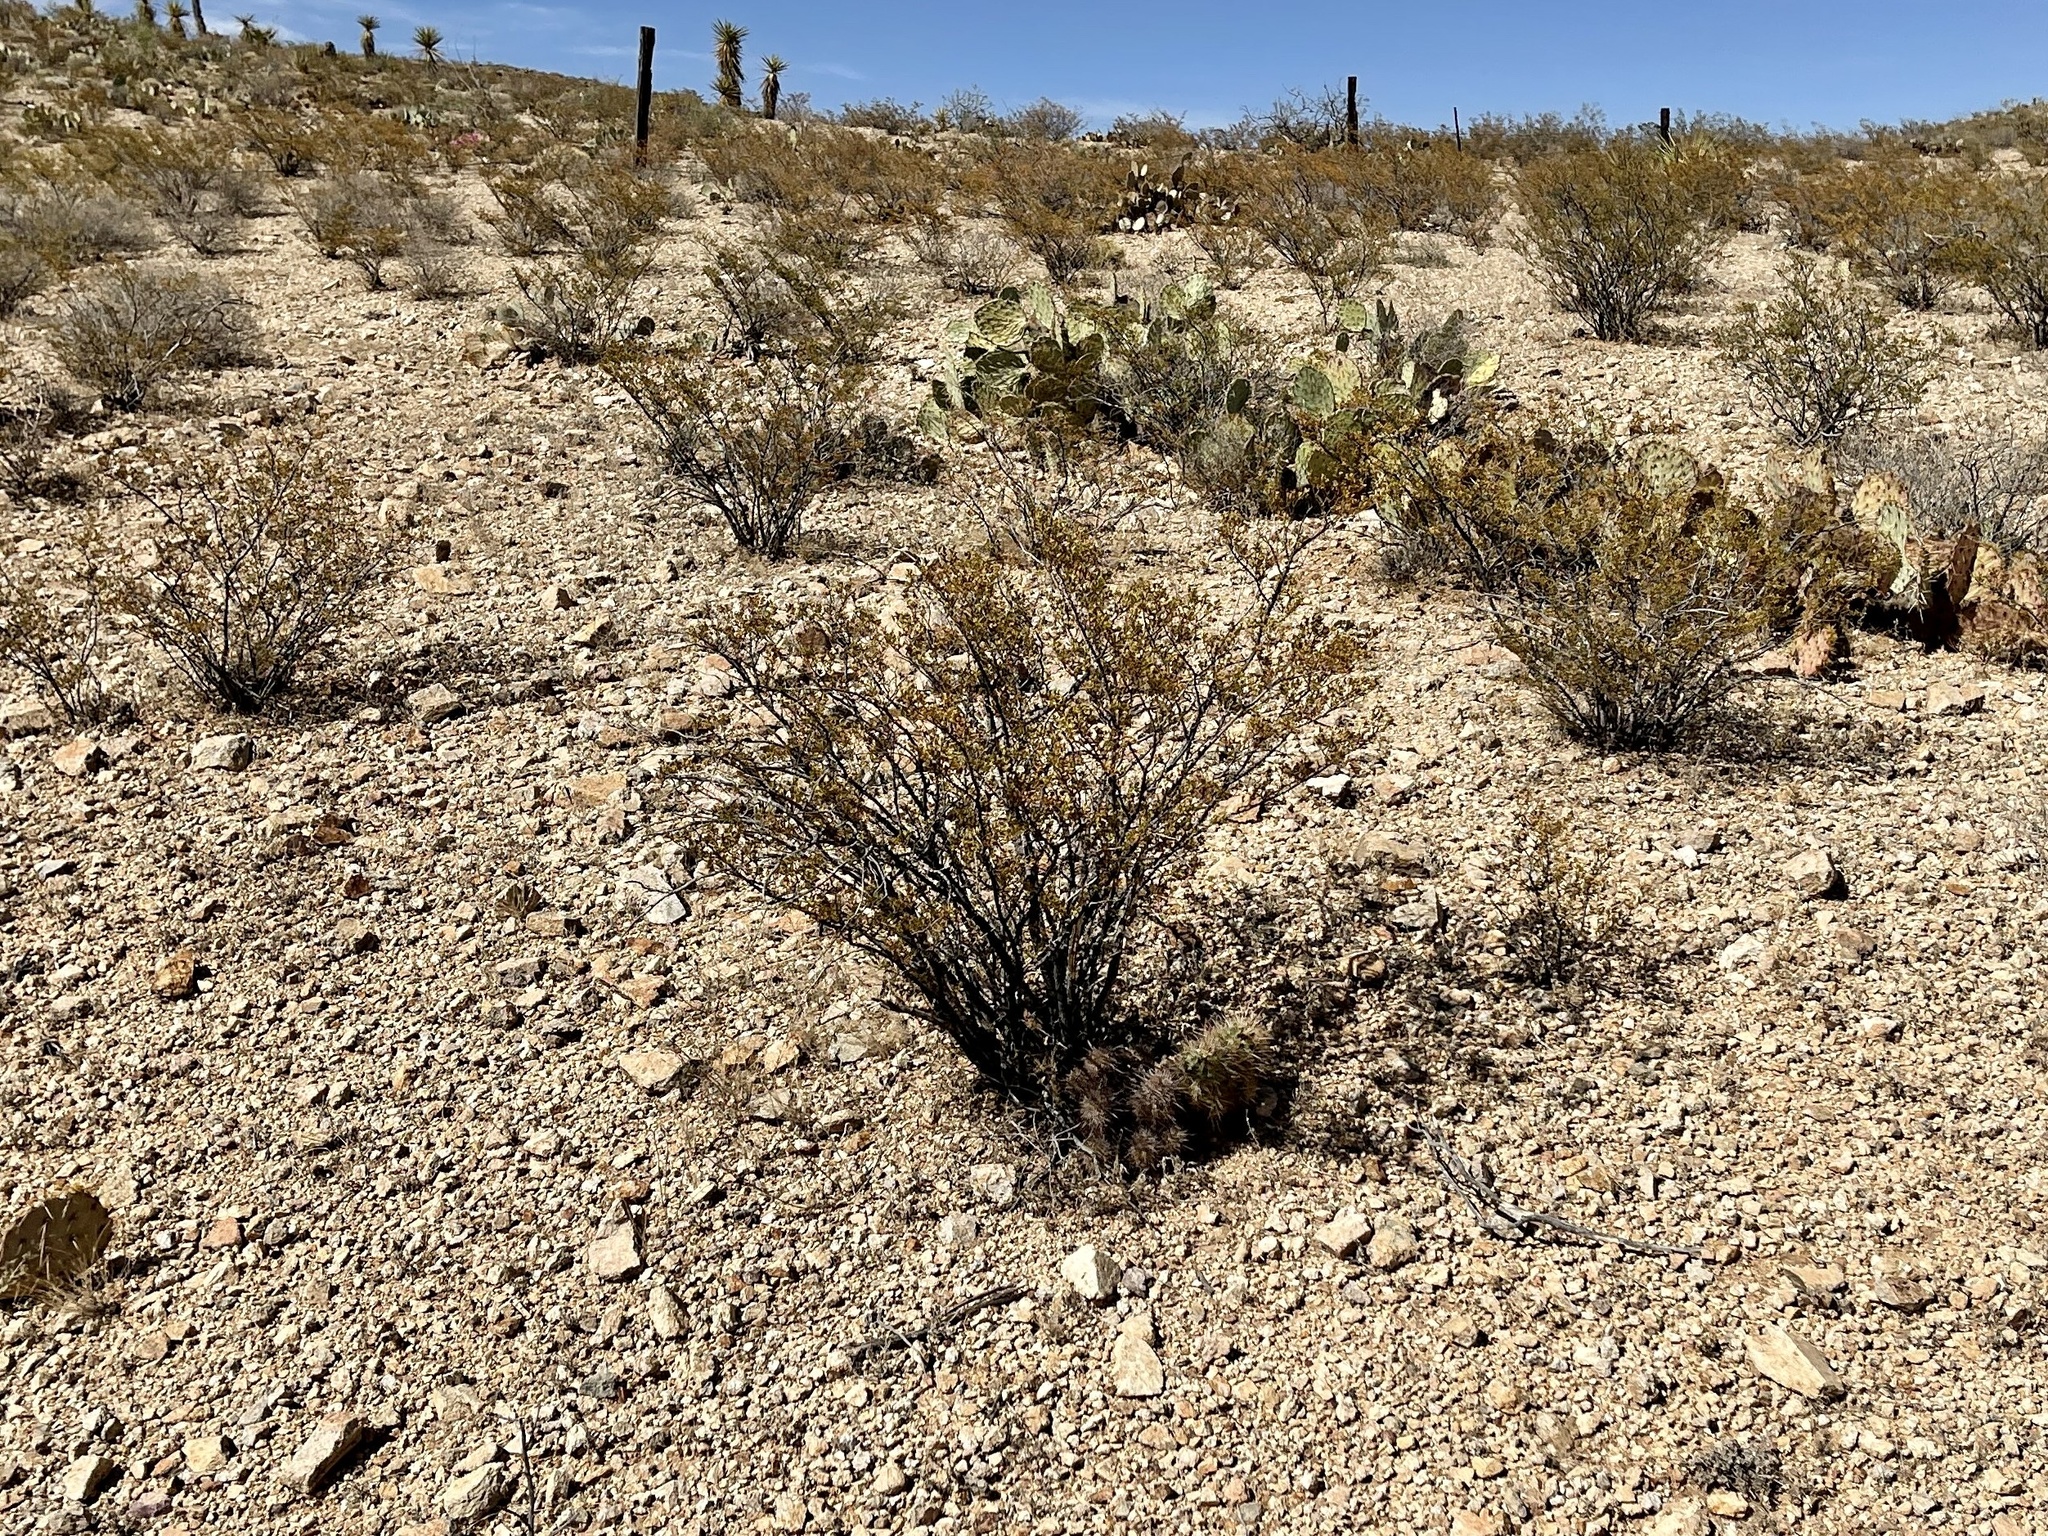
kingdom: Plantae
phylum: Tracheophyta
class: Magnoliopsida
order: Zygophyllales
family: Zygophyllaceae
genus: Larrea
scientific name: Larrea tridentata
